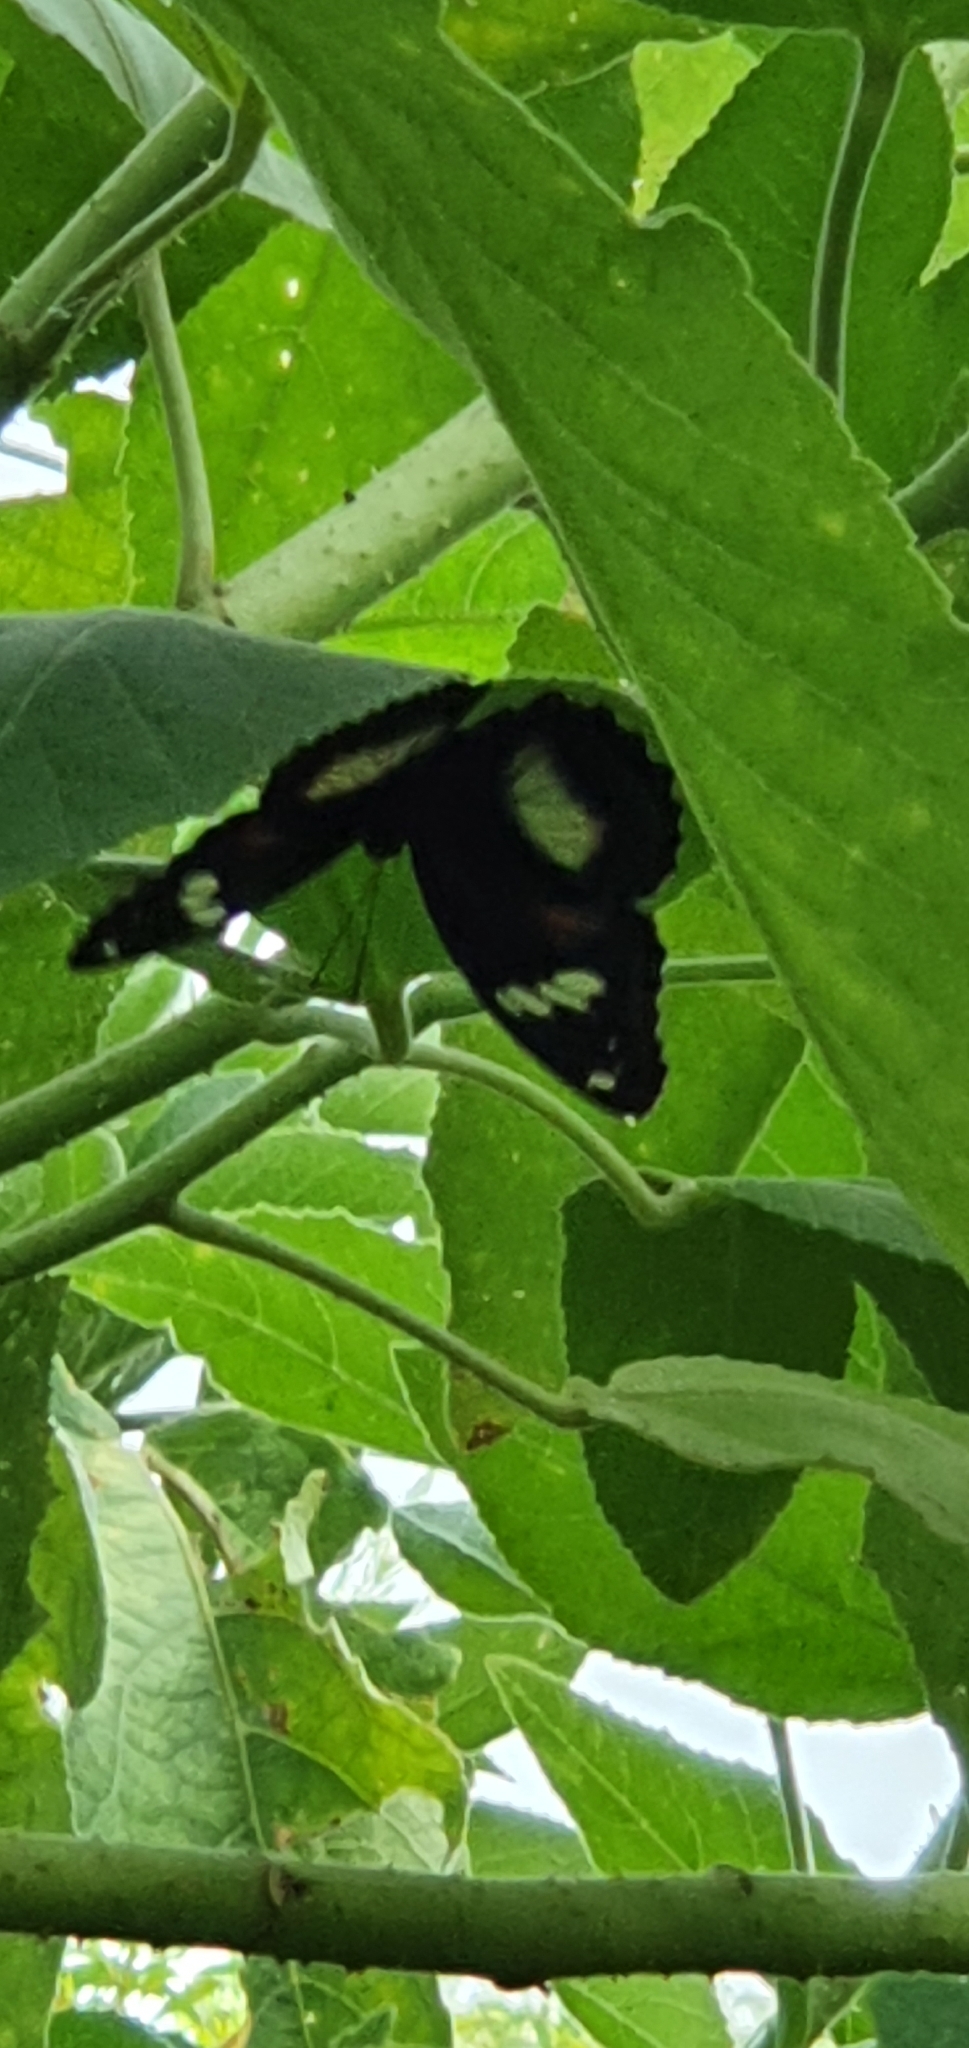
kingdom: Animalia
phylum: Arthropoda
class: Insecta
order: Lepidoptera
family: Nymphalidae
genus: Hypolimnas
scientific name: Hypolimnas bolina
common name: Great eggfly
